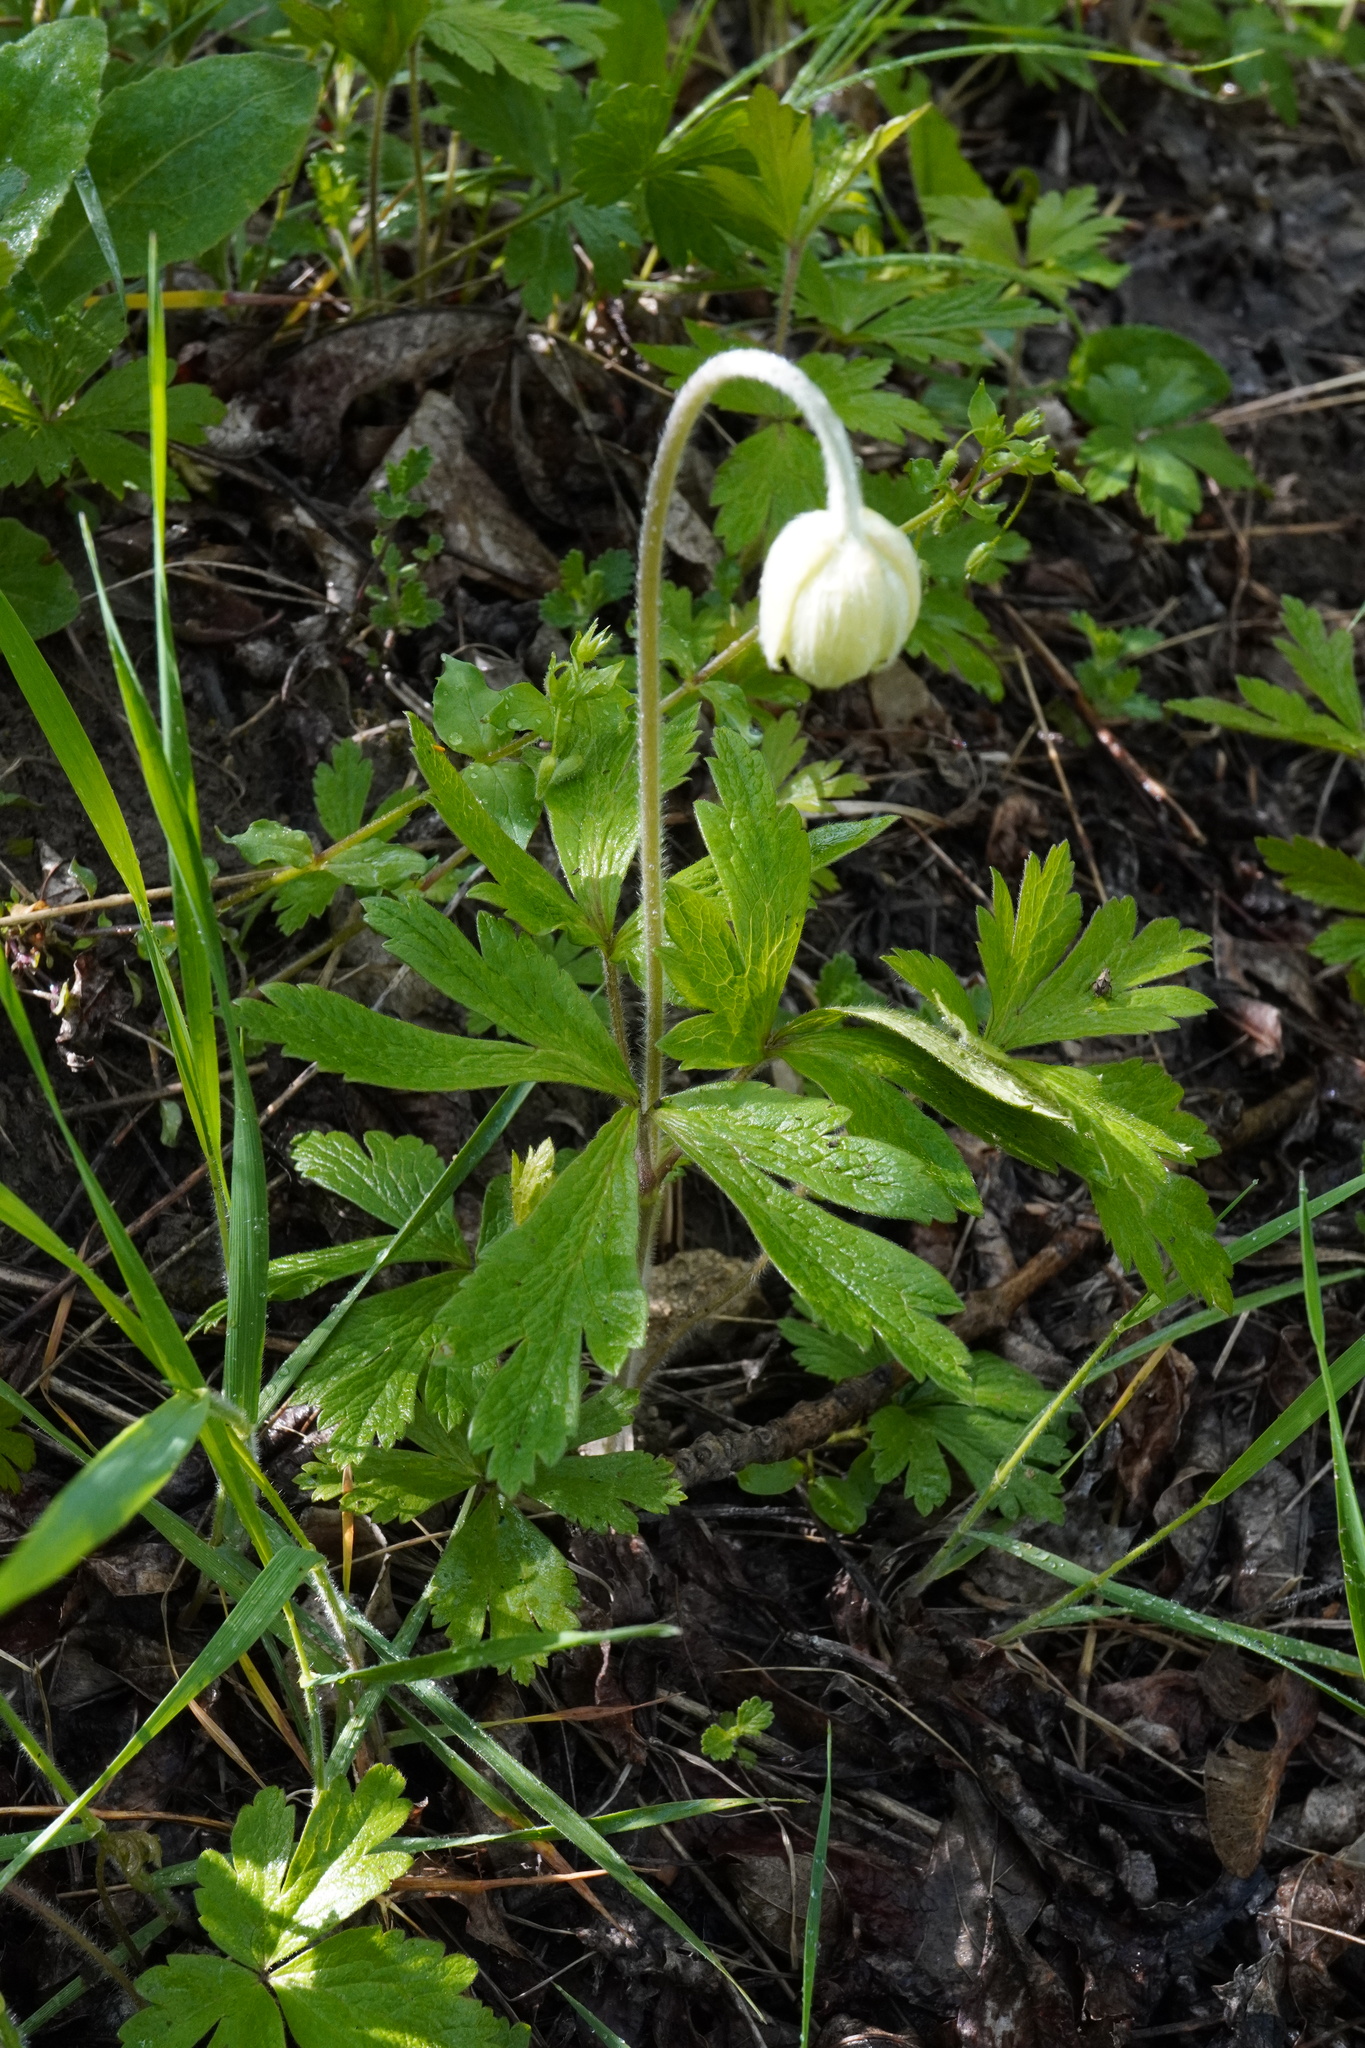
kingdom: Plantae
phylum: Tracheophyta
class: Magnoliopsida
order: Ranunculales
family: Ranunculaceae
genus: Anemone
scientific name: Anemone sylvestris
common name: Snowdrop anemone
